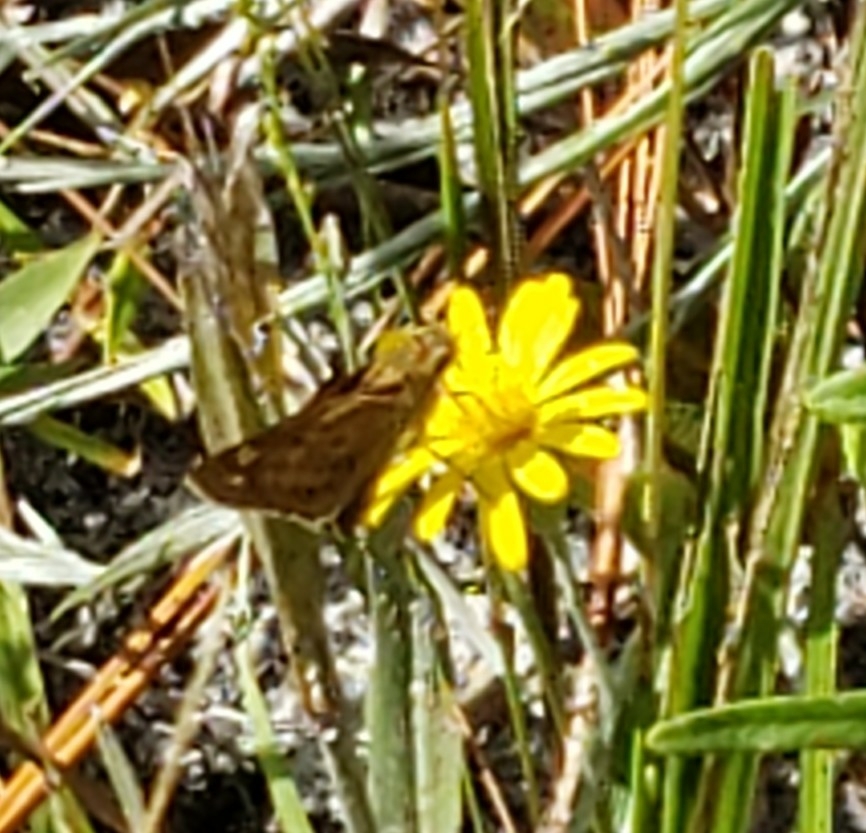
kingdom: Animalia
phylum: Arthropoda
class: Insecta
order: Lepidoptera
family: Hesperiidae
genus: Hylephila
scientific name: Hylephila phyleus
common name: Fiery skipper
